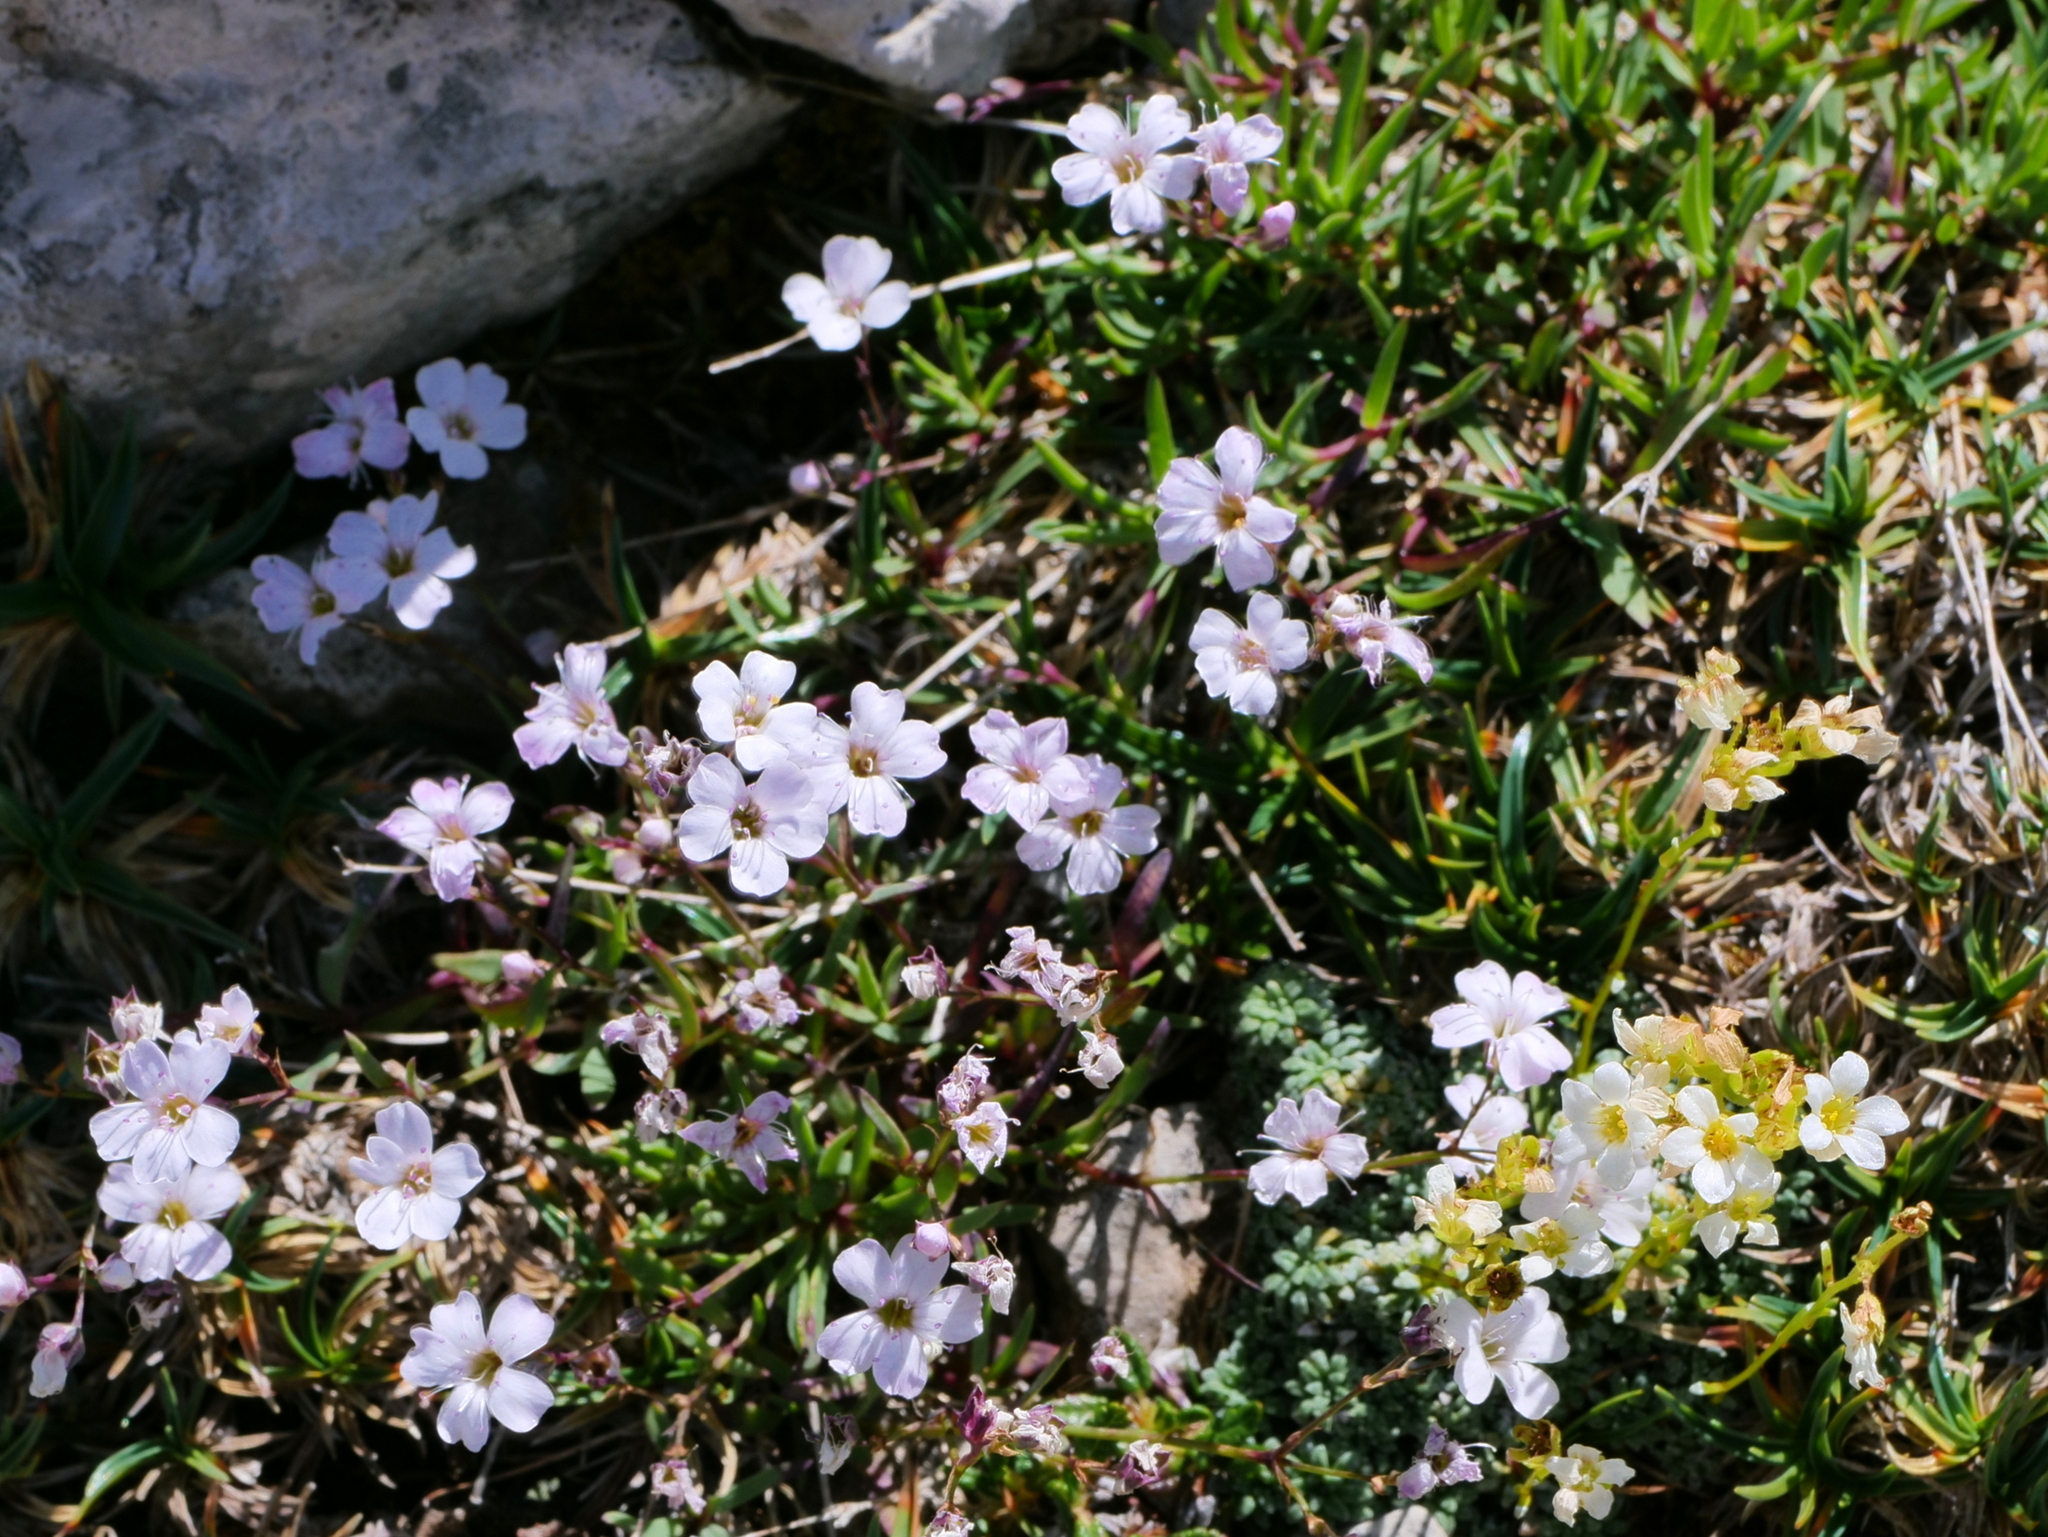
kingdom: Plantae
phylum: Tracheophyta
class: Magnoliopsida
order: Caryophyllales
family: Caryophyllaceae
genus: Gypsophila
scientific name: Gypsophila repens
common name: Creeping baby's-breath
